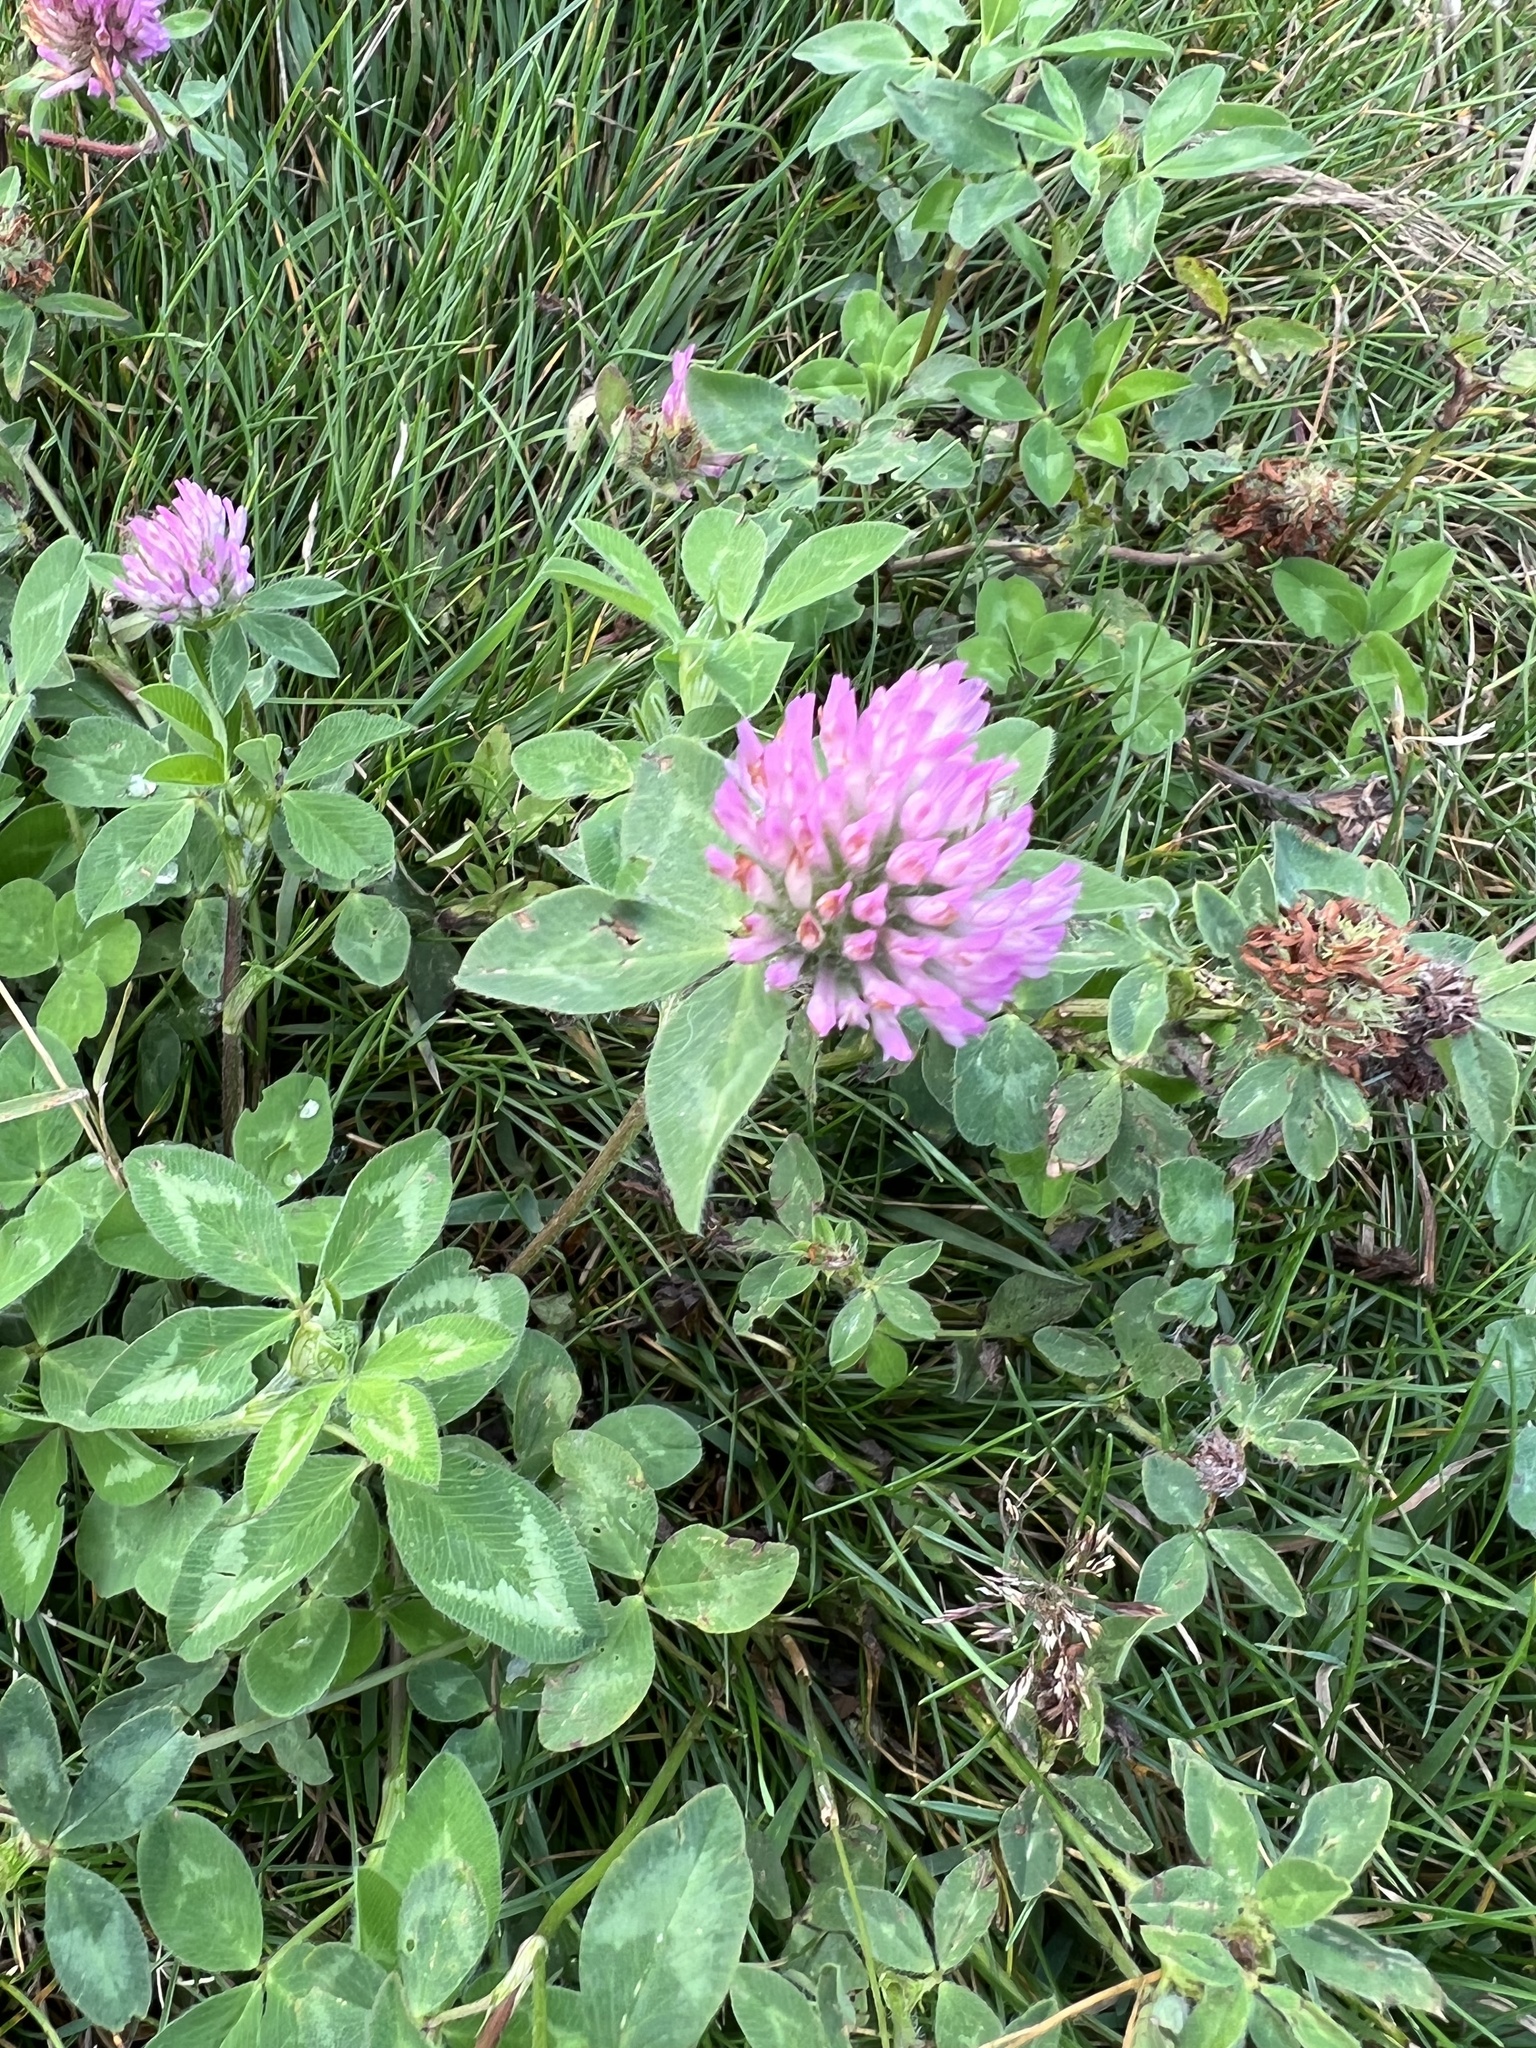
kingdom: Plantae
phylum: Tracheophyta
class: Magnoliopsida
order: Fabales
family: Fabaceae
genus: Trifolium
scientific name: Trifolium pratense
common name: Red clover
